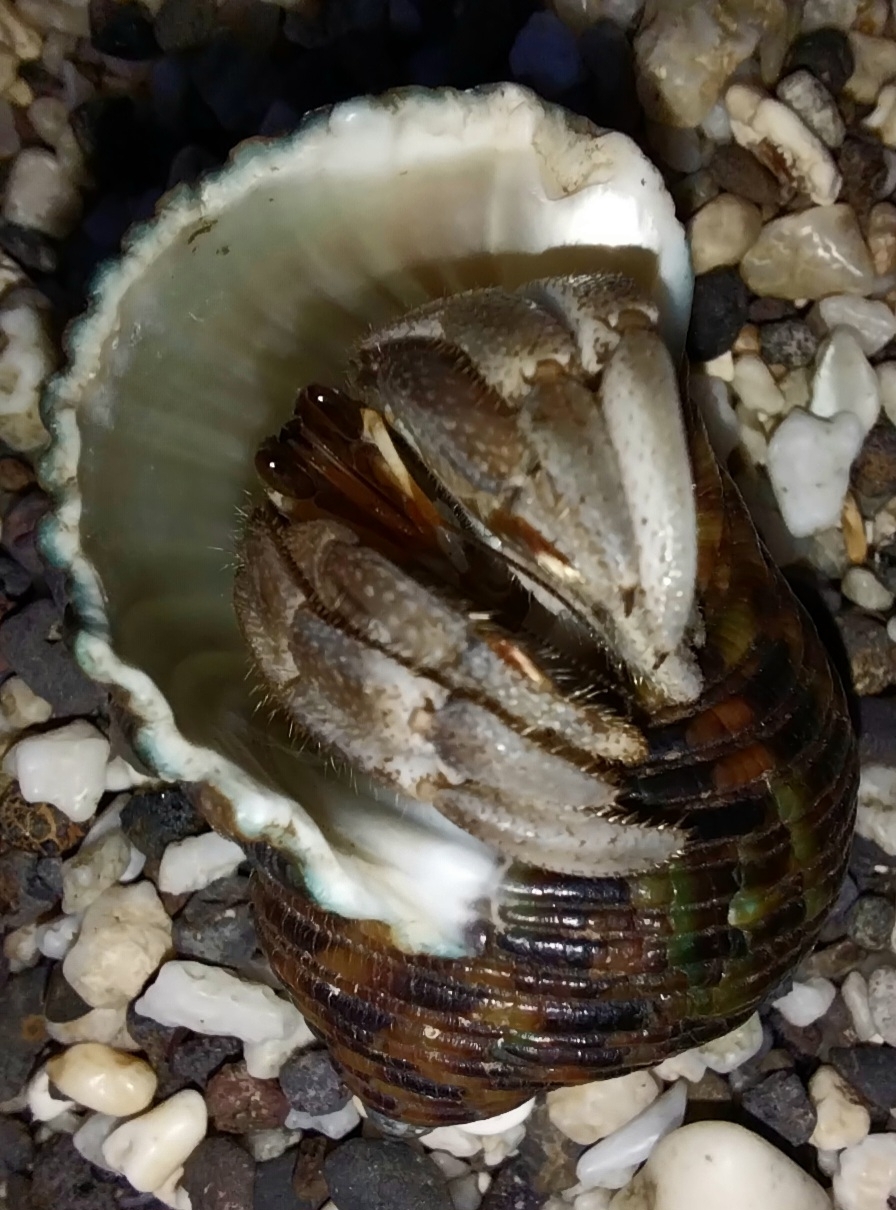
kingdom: Animalia
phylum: Arthropoda
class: Malacostraca
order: Decapoda
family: Coenobitidae
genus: Coenobita
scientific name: Coenobita rugosus
